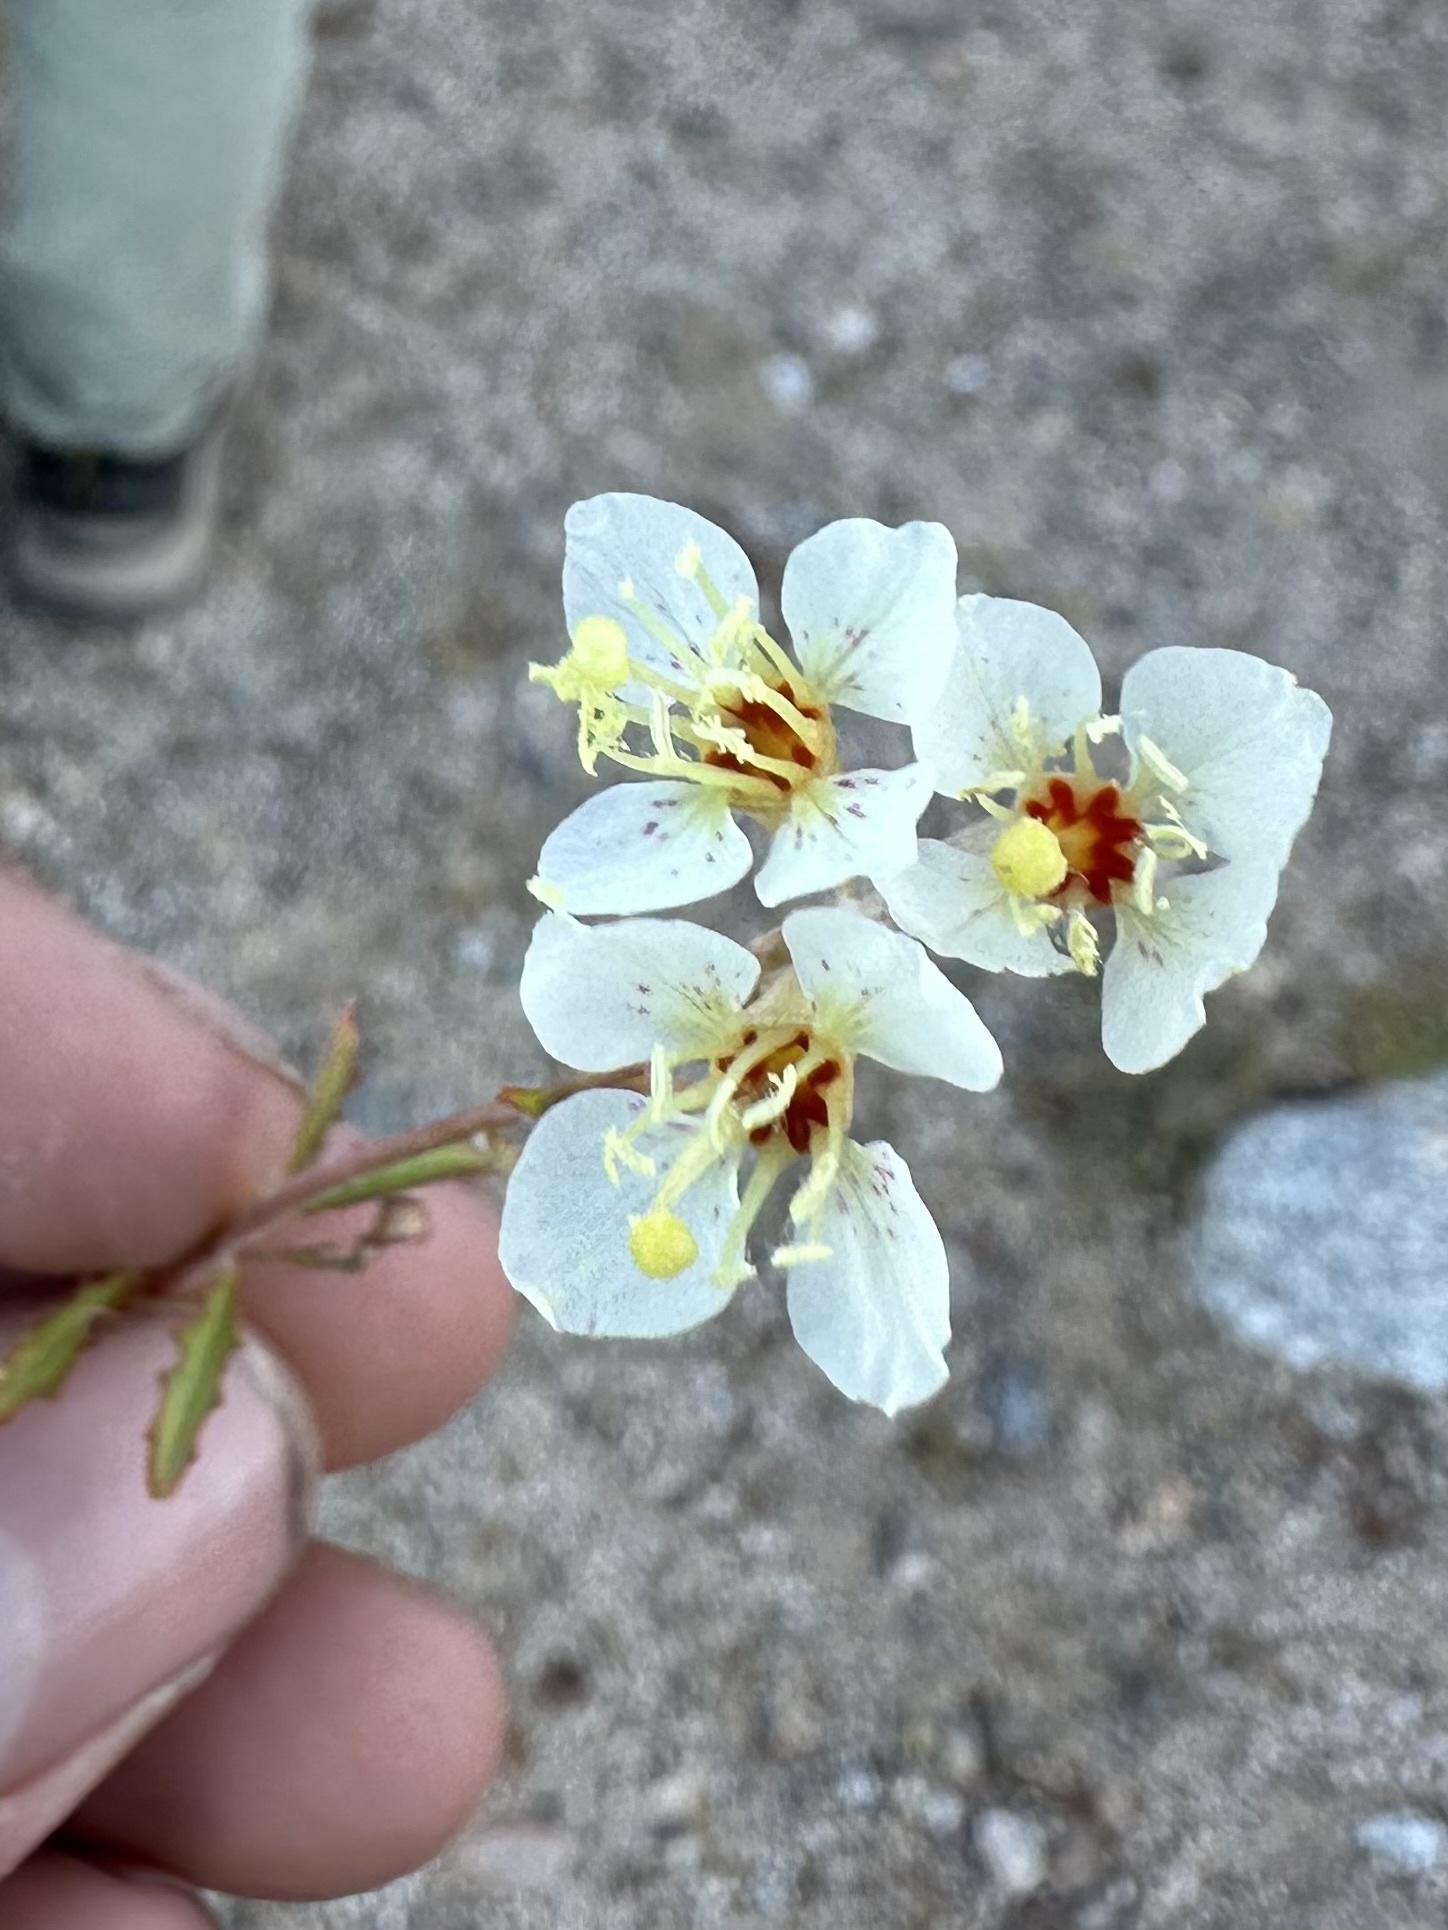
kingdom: Plantae
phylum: Tracheophyta
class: Magnoliopsida
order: Myrtales
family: Onagraceae
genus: Chylismia
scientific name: Chylismia claviformis
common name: Browneyes
